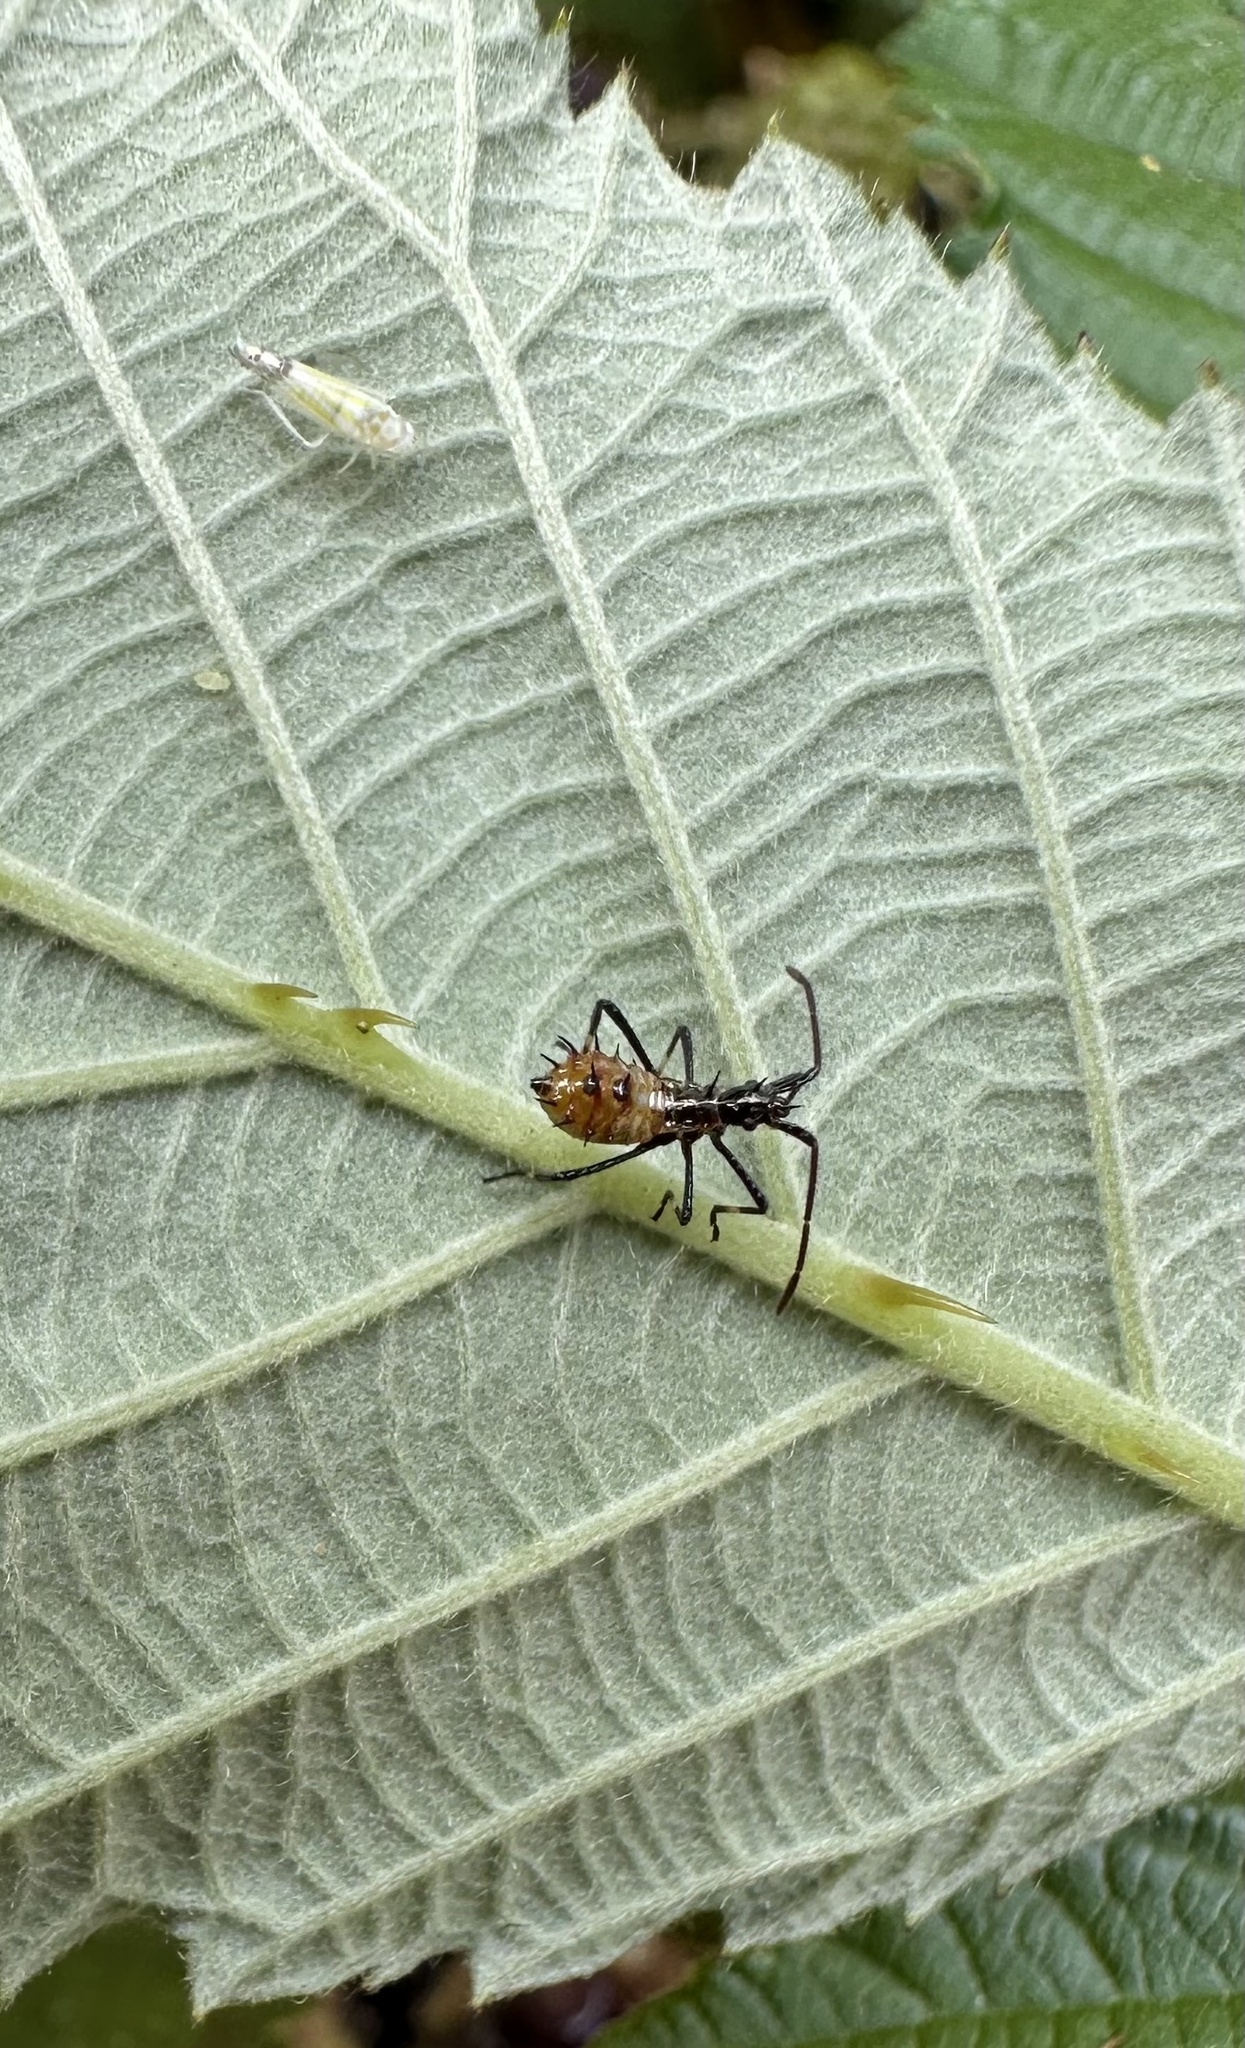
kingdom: Animalia
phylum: Arthropoda
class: Insecta
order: Hemiptera
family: Coreidae
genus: Leptoglossus
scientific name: Leptoglossus chilensis
